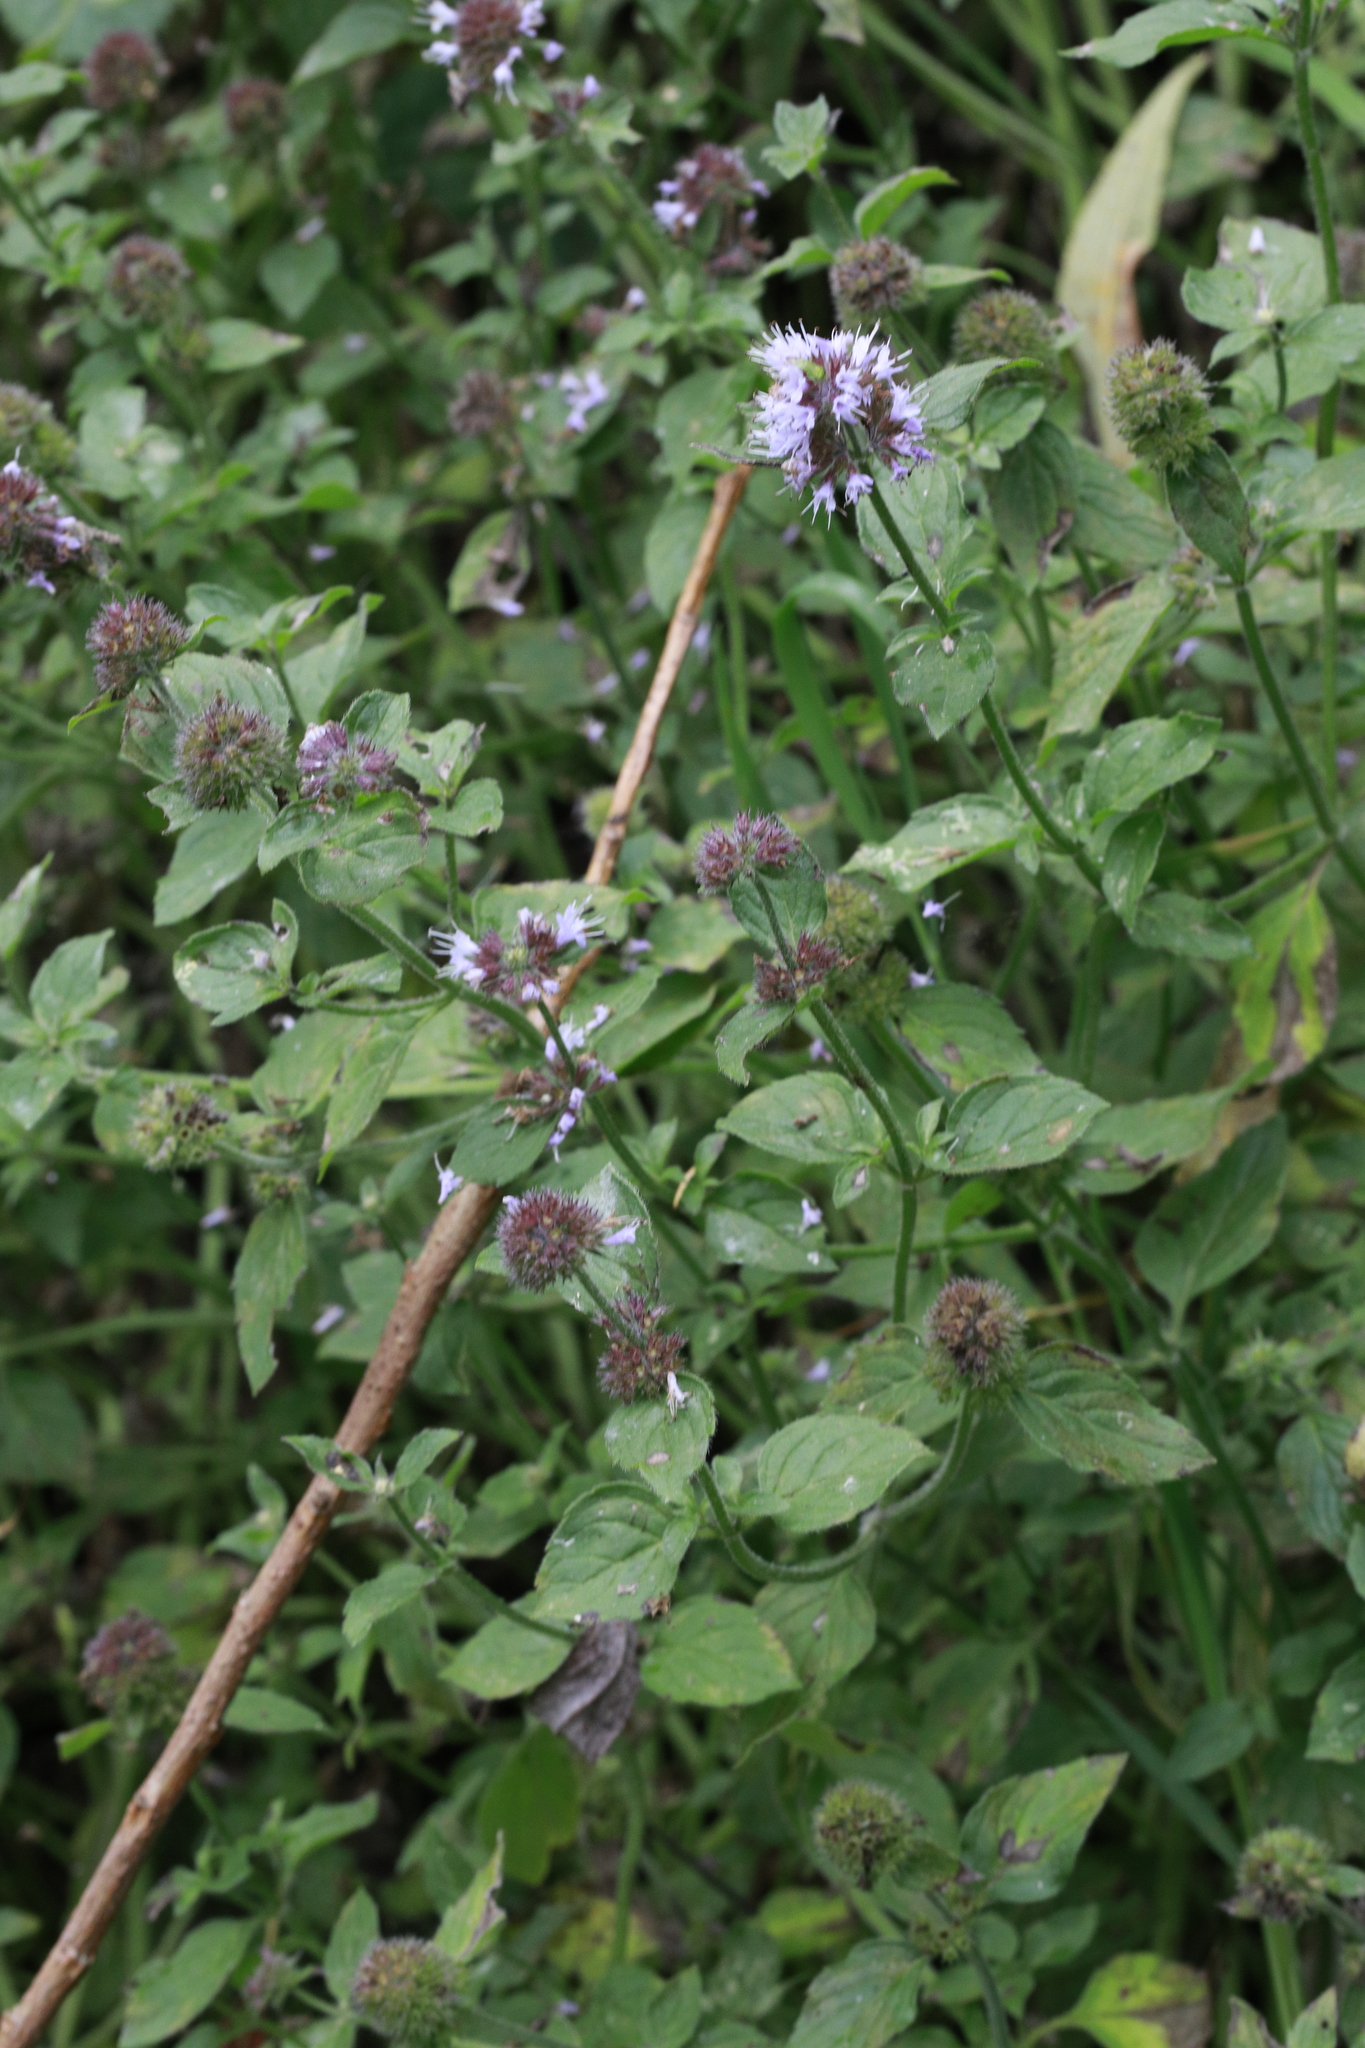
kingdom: Plantae
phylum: Tracheophyta
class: Magnoliopsida
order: Lamiales
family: Lamiaceae
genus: Mentha
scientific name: Mentha aquatica
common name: Water mint
